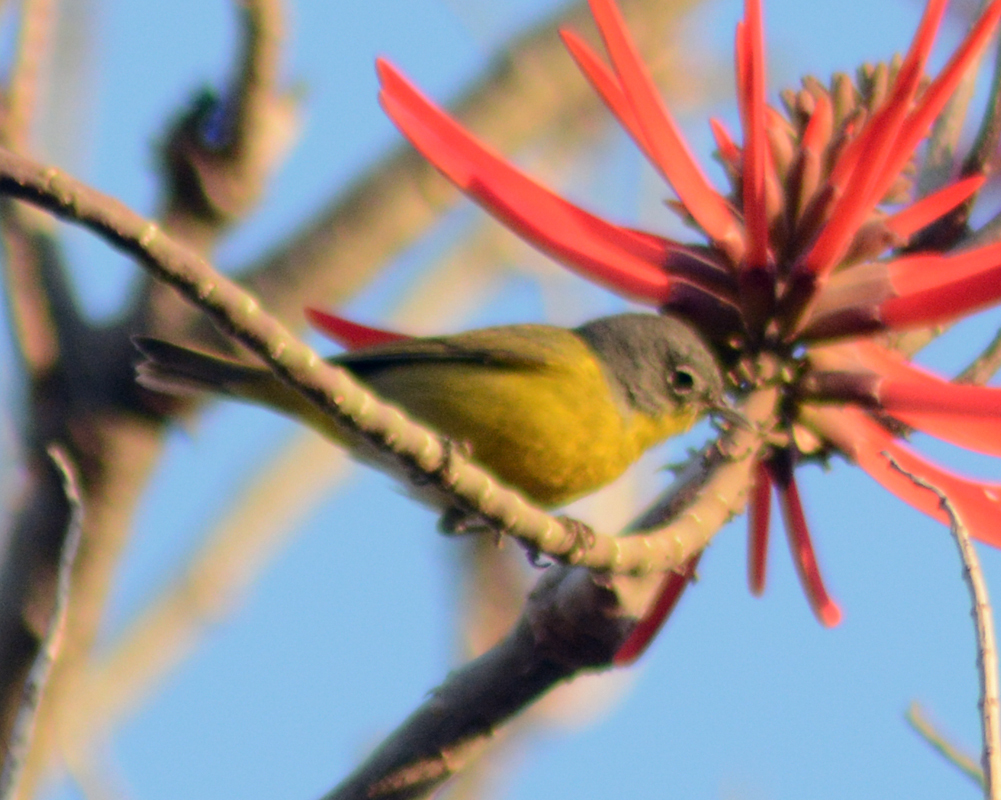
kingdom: Animalia
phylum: Chordata
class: Aves
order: Passeriformes
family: Parulidae
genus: Leiothlypis
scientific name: Leiothlypis ruficapilla
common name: Nashville warbler
